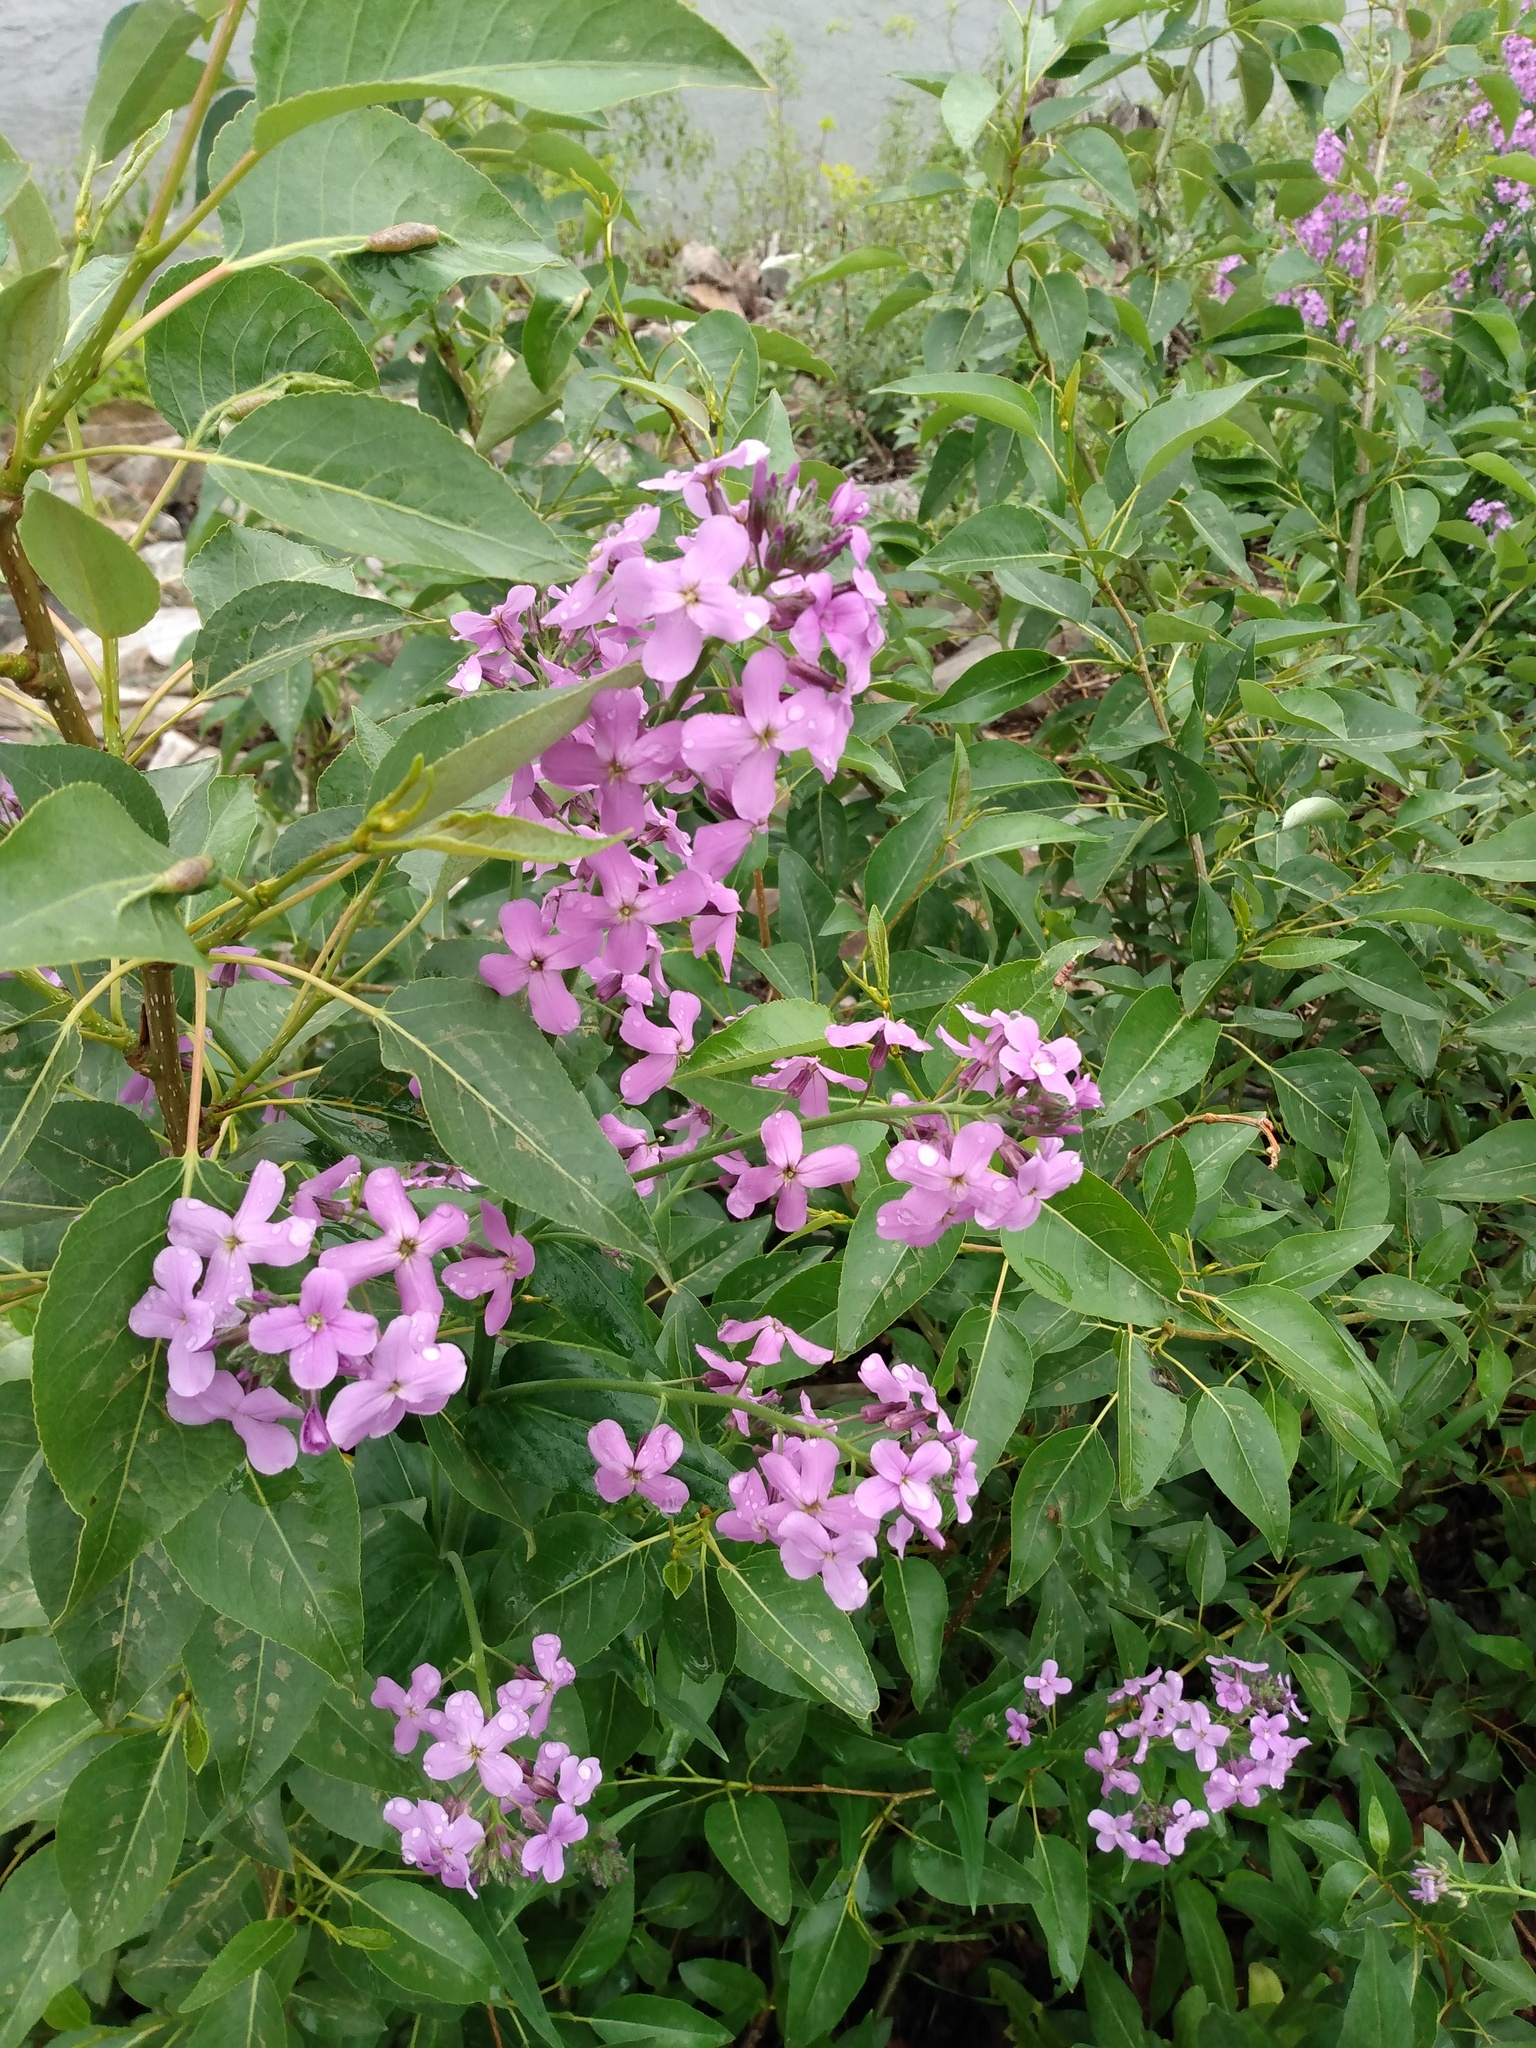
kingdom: Plantae
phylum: Tracheophyta
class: Magnoliopsida
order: Brassicales
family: Brassicaceae
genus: Hesperis
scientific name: Hesperis matronalis
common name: Dame's-violet
